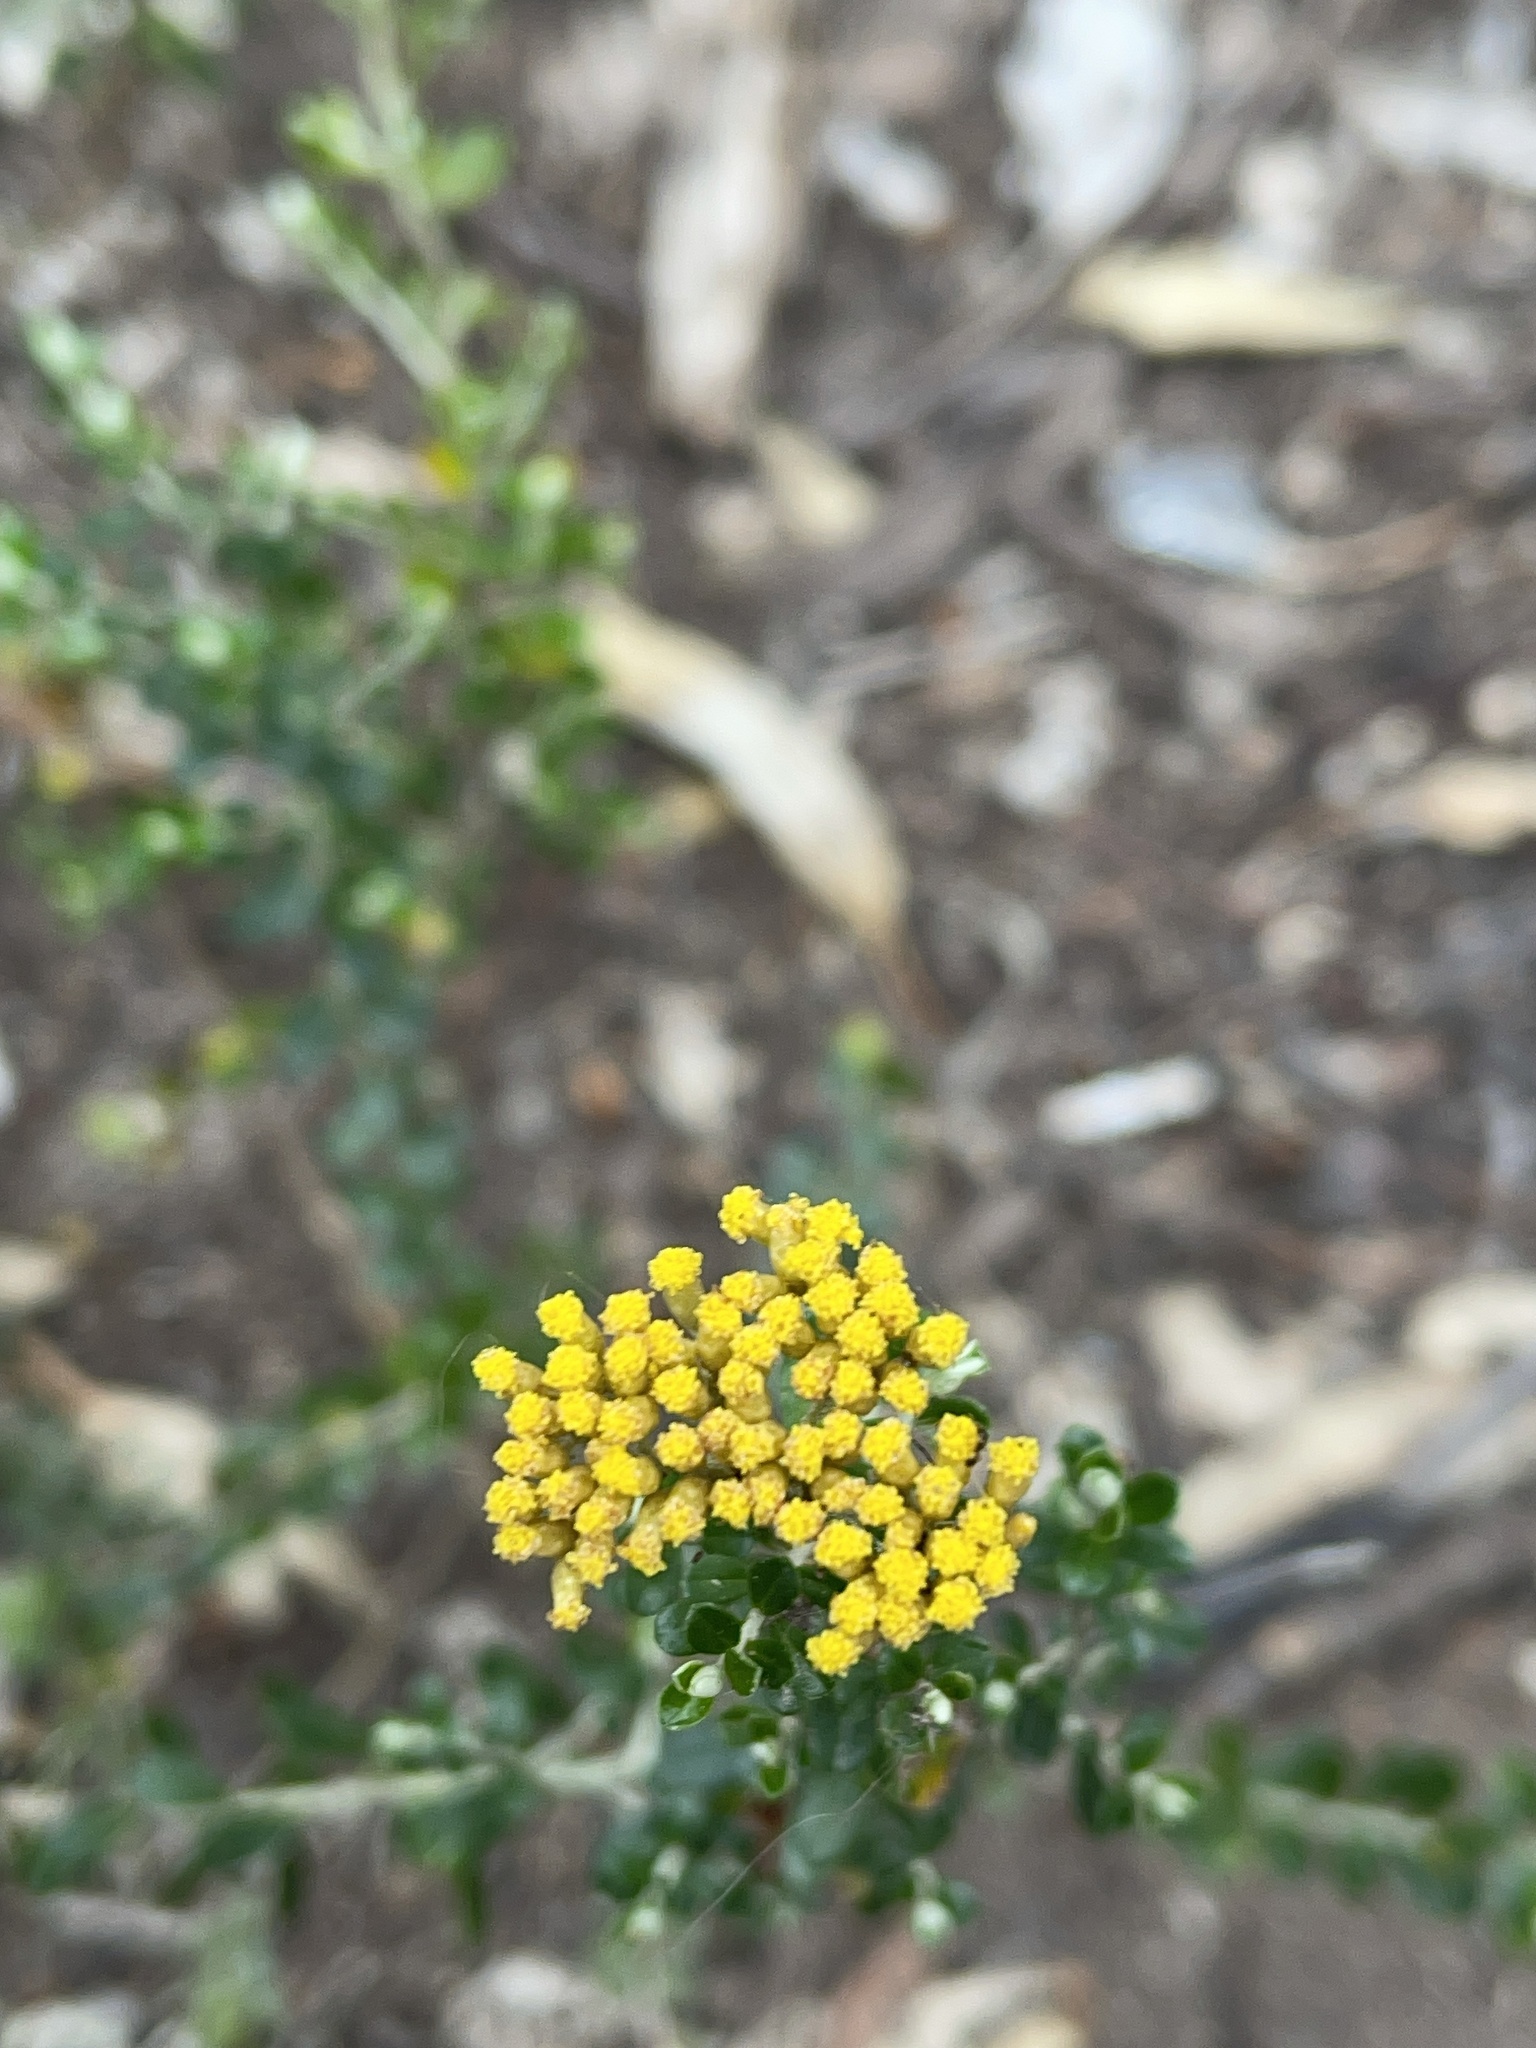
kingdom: Plantae
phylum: Tracheophyta
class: Magnoliopsida
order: Asterales
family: Asteraceae
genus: Ozothamnus
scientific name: Ozothamnus obcordatus
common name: Grey everlasting
